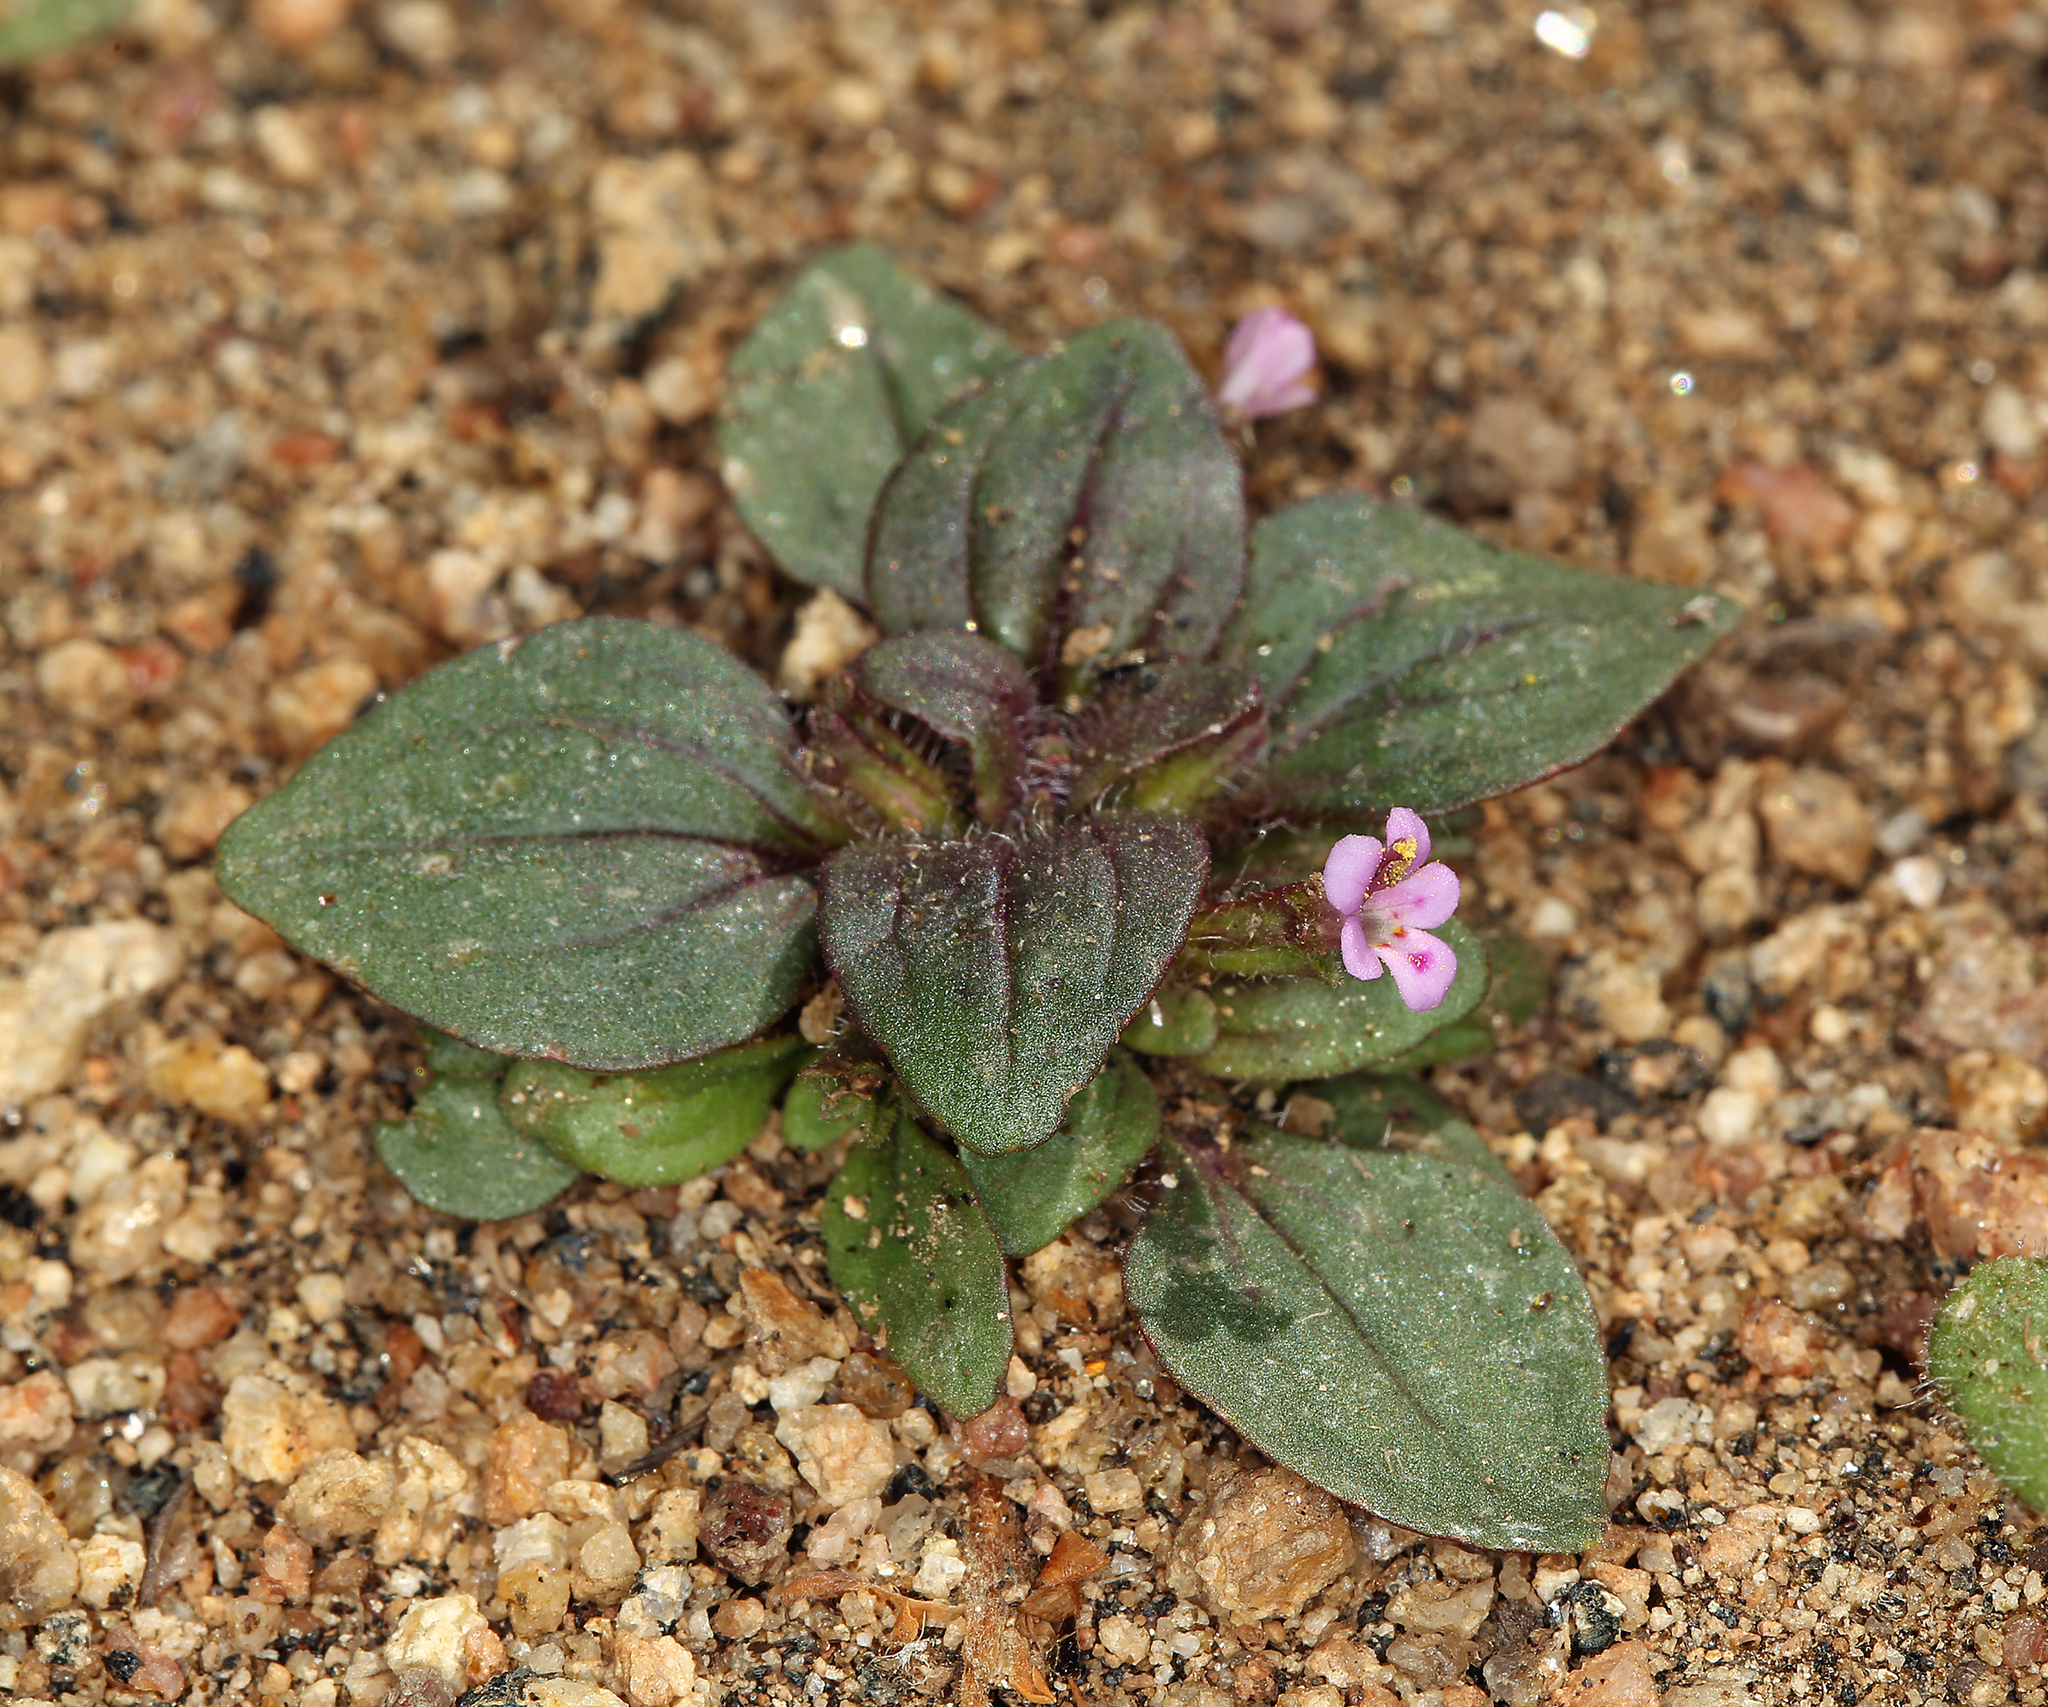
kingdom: Plantae
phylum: Tracheophyta
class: Magnoliopsida
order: Lamiales
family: Phrymaceae
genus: Diplacus
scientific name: Diplacus congdonii
